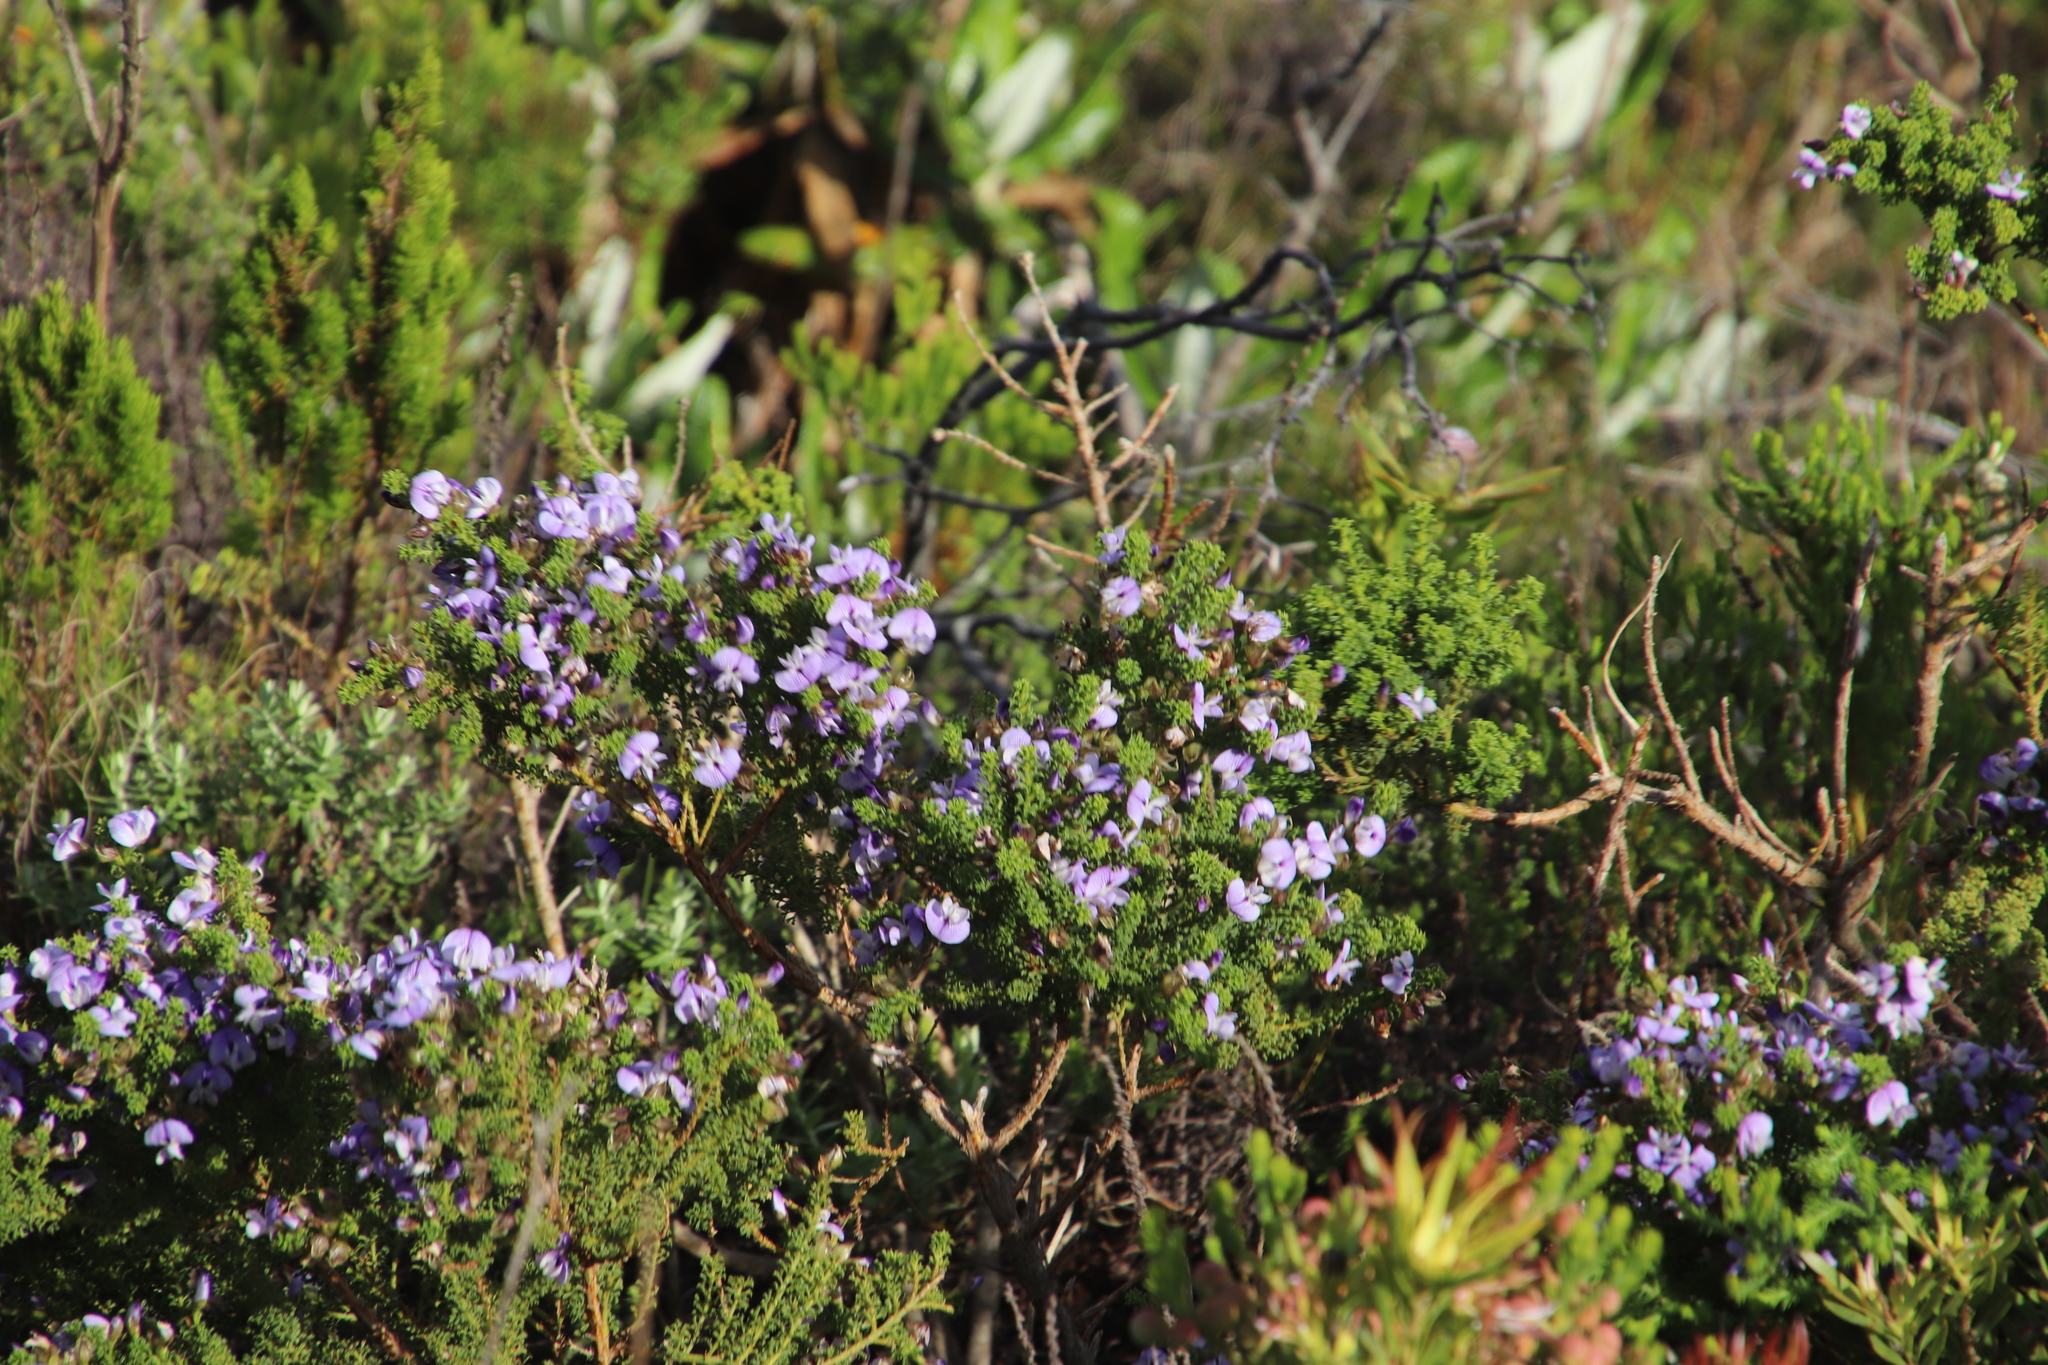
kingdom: Plantae
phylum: Tracheophyta
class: Magnoliopsida
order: Fabales
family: Fabaceae
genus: Psoralea
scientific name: Psoralea aculeata
